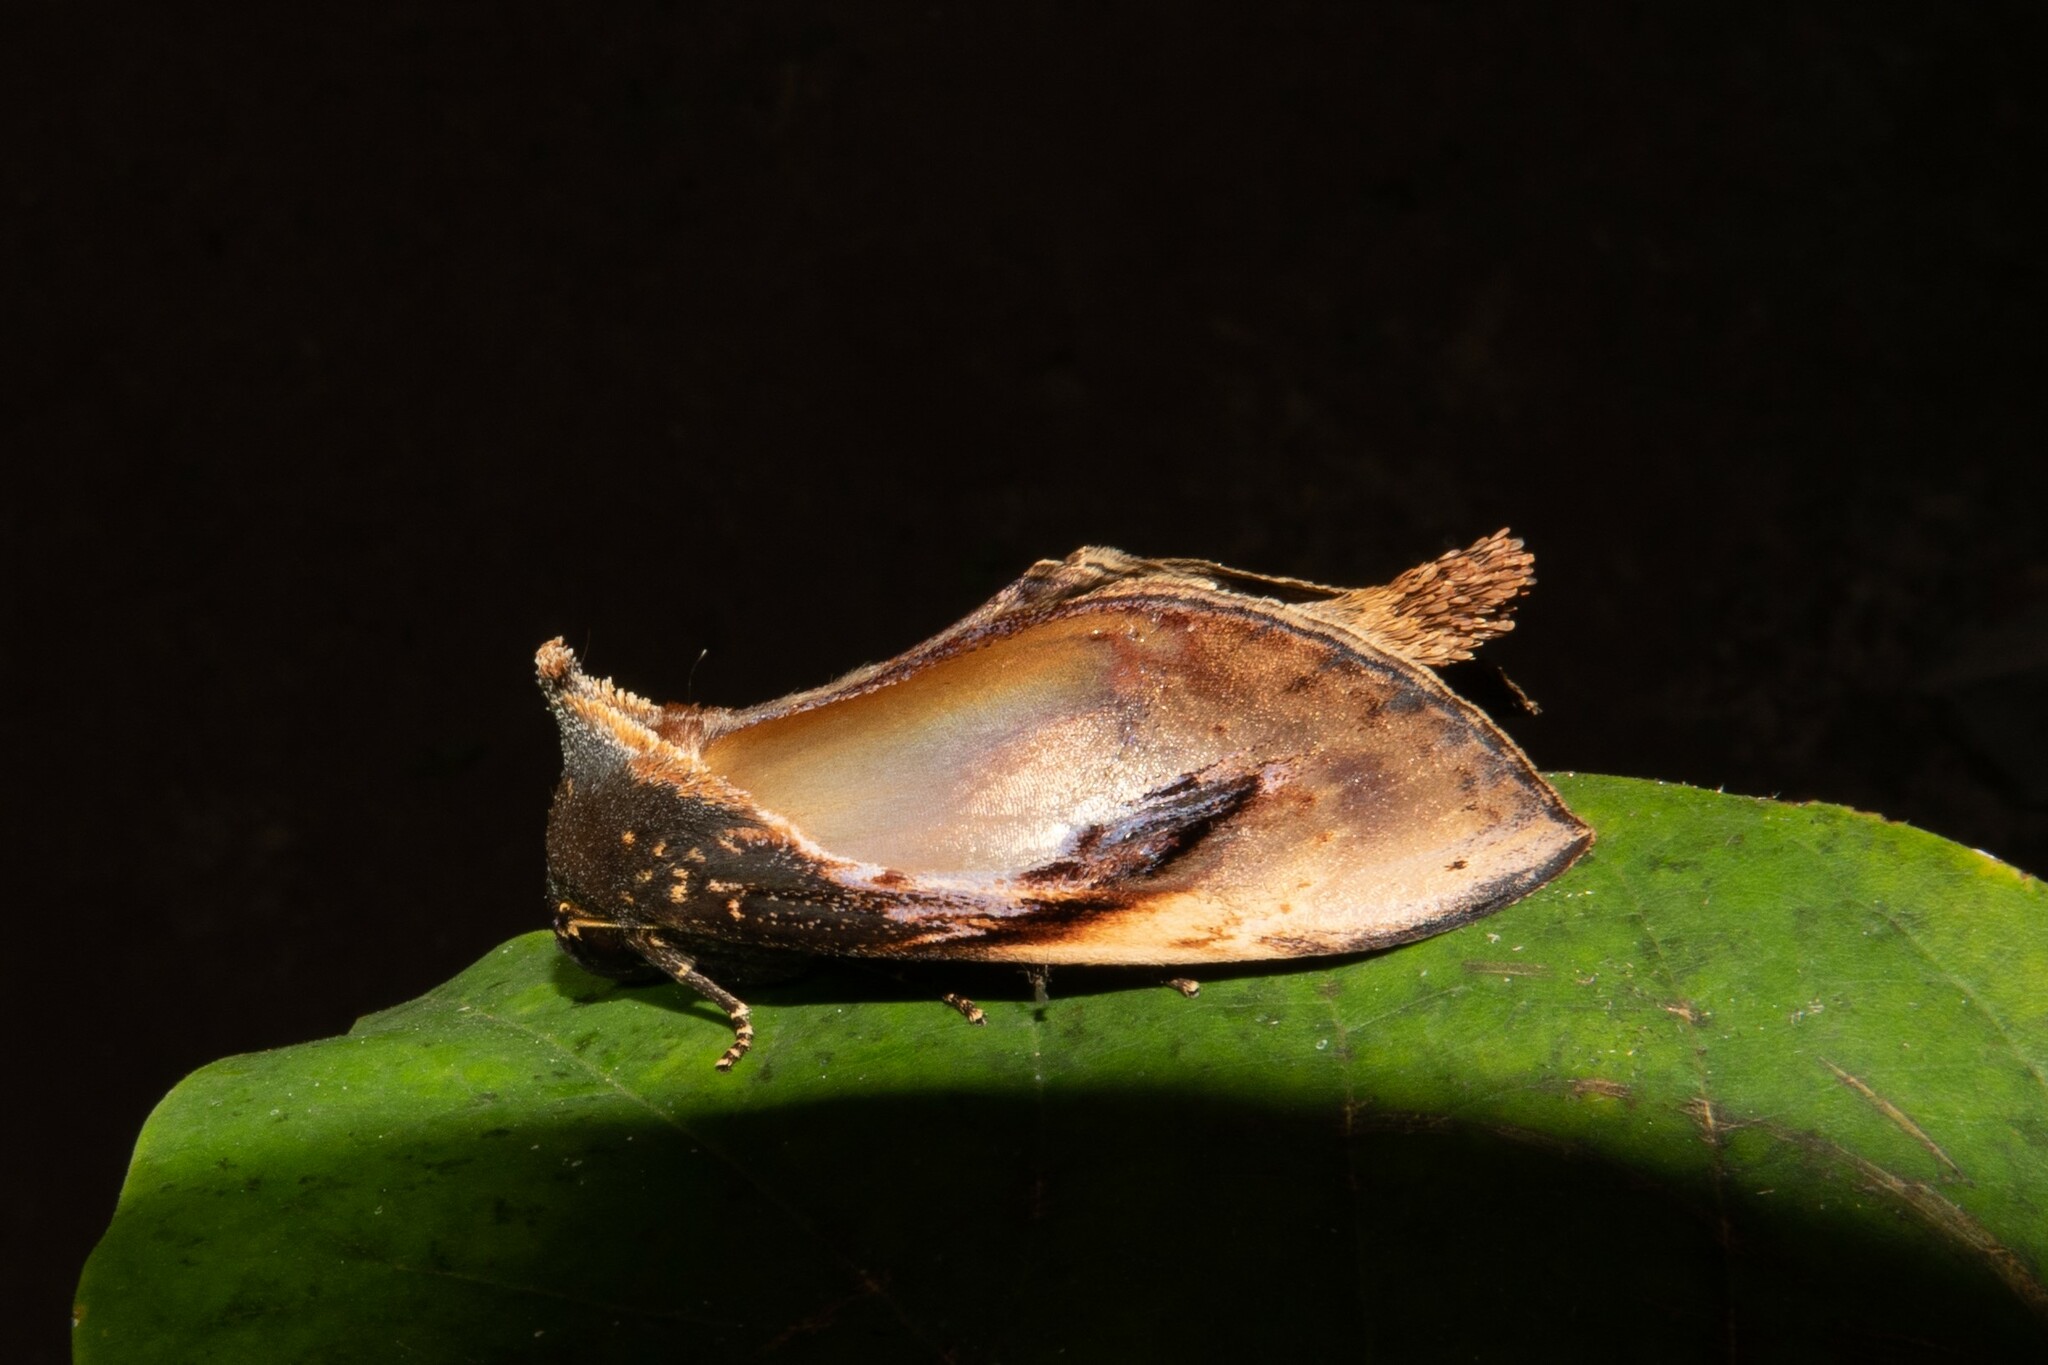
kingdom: Animalia
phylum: Arthropoda
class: Insecta
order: Lepidoptera
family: Notodontidae
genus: Crinodes
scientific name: Crinodes bellatrix
